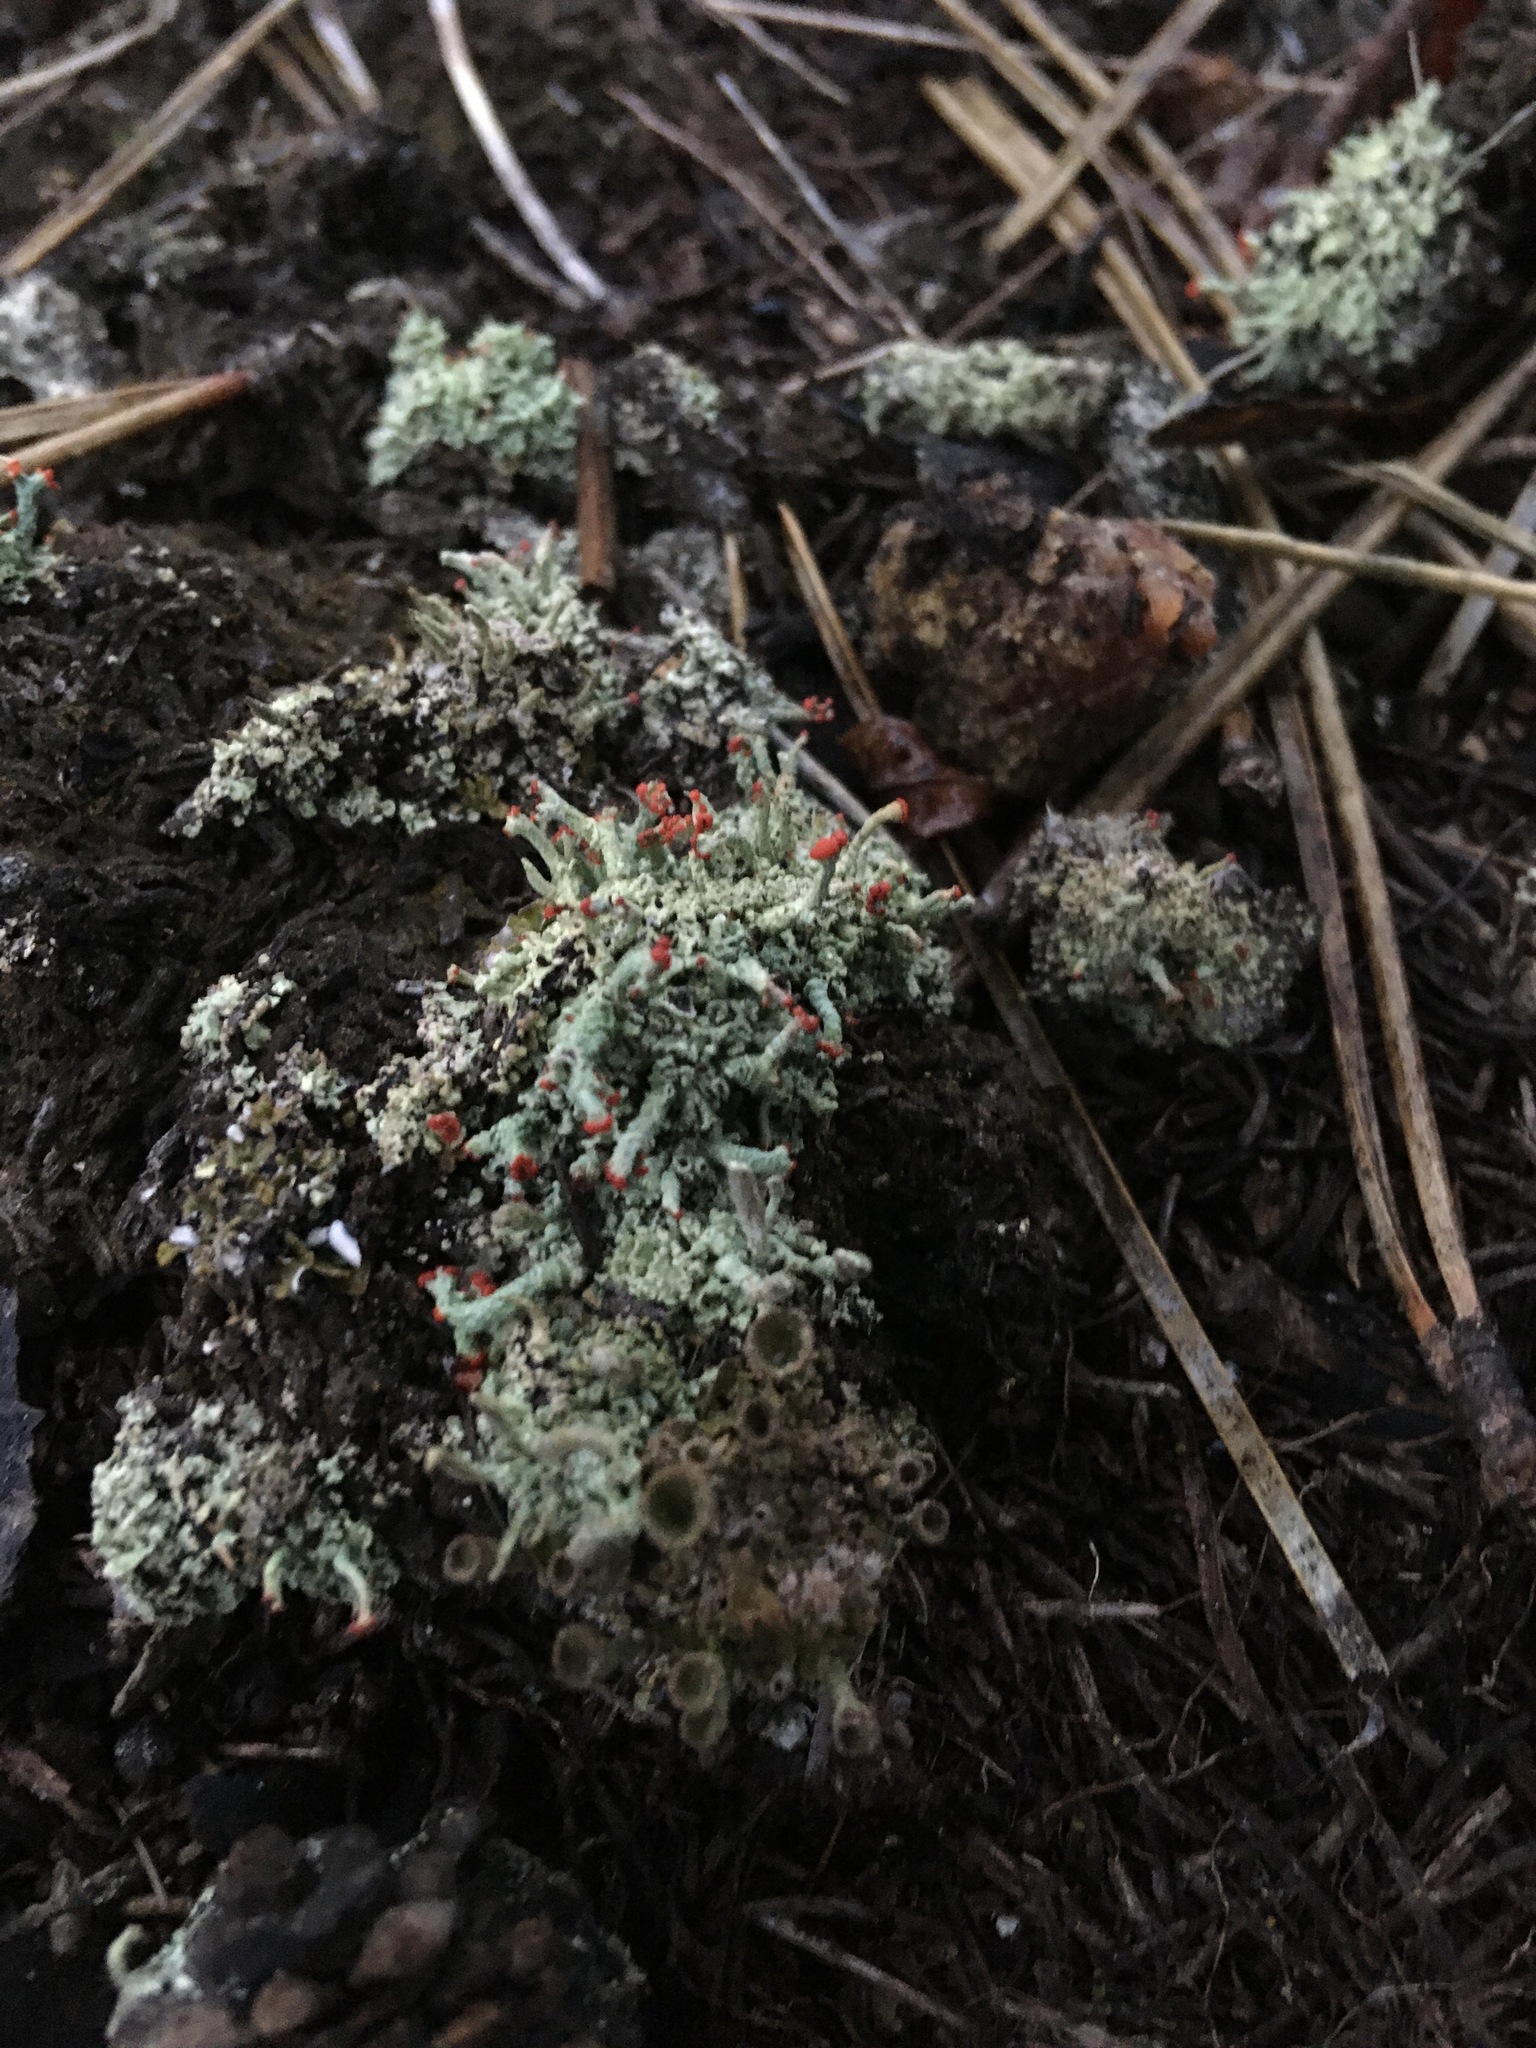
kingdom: Fungi
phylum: Ascomycota
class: Lecanoromycetes
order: Lecanorales
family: Cladoniaceae
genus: Cladonia
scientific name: Cladonia cristatella
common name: British soldier lichen
